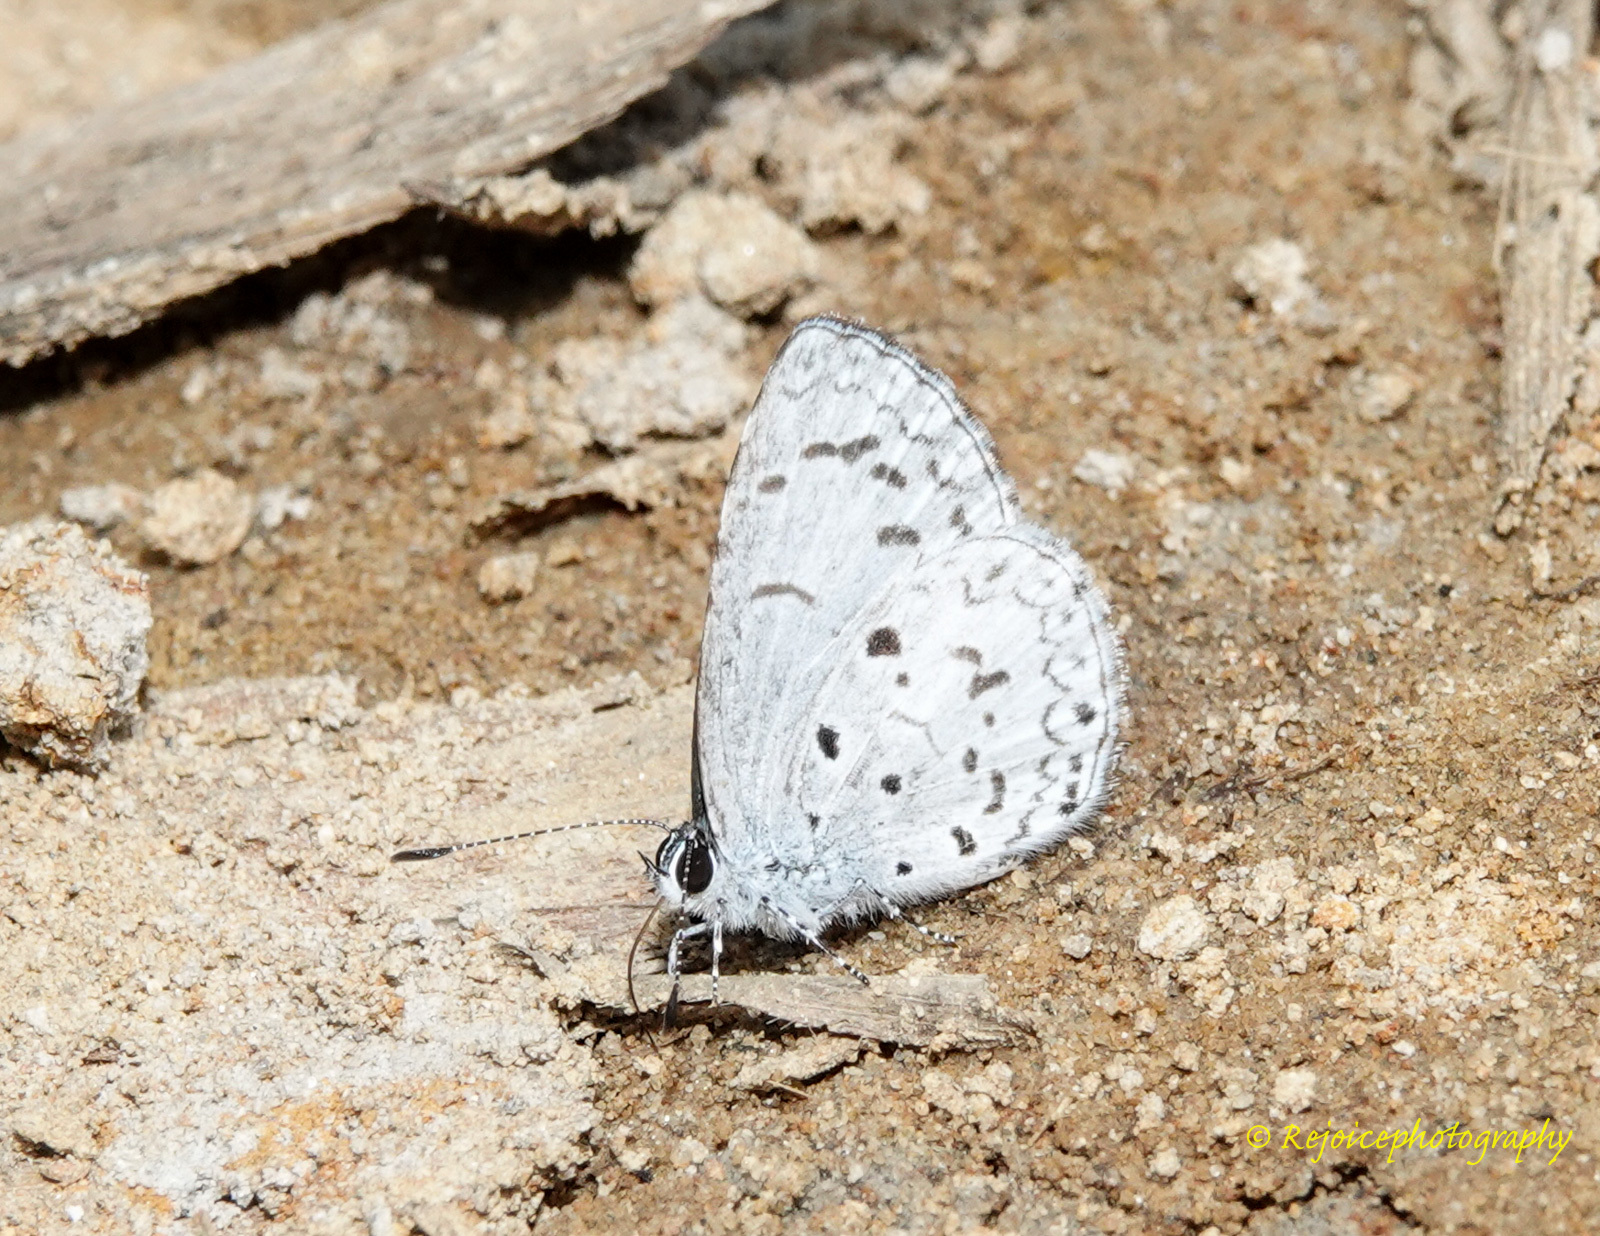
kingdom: Animalia
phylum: Arthropoda
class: Insecta
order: Lepidoptera
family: Lycaenidae
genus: Acytolepis
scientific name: Acytolepis puspa
